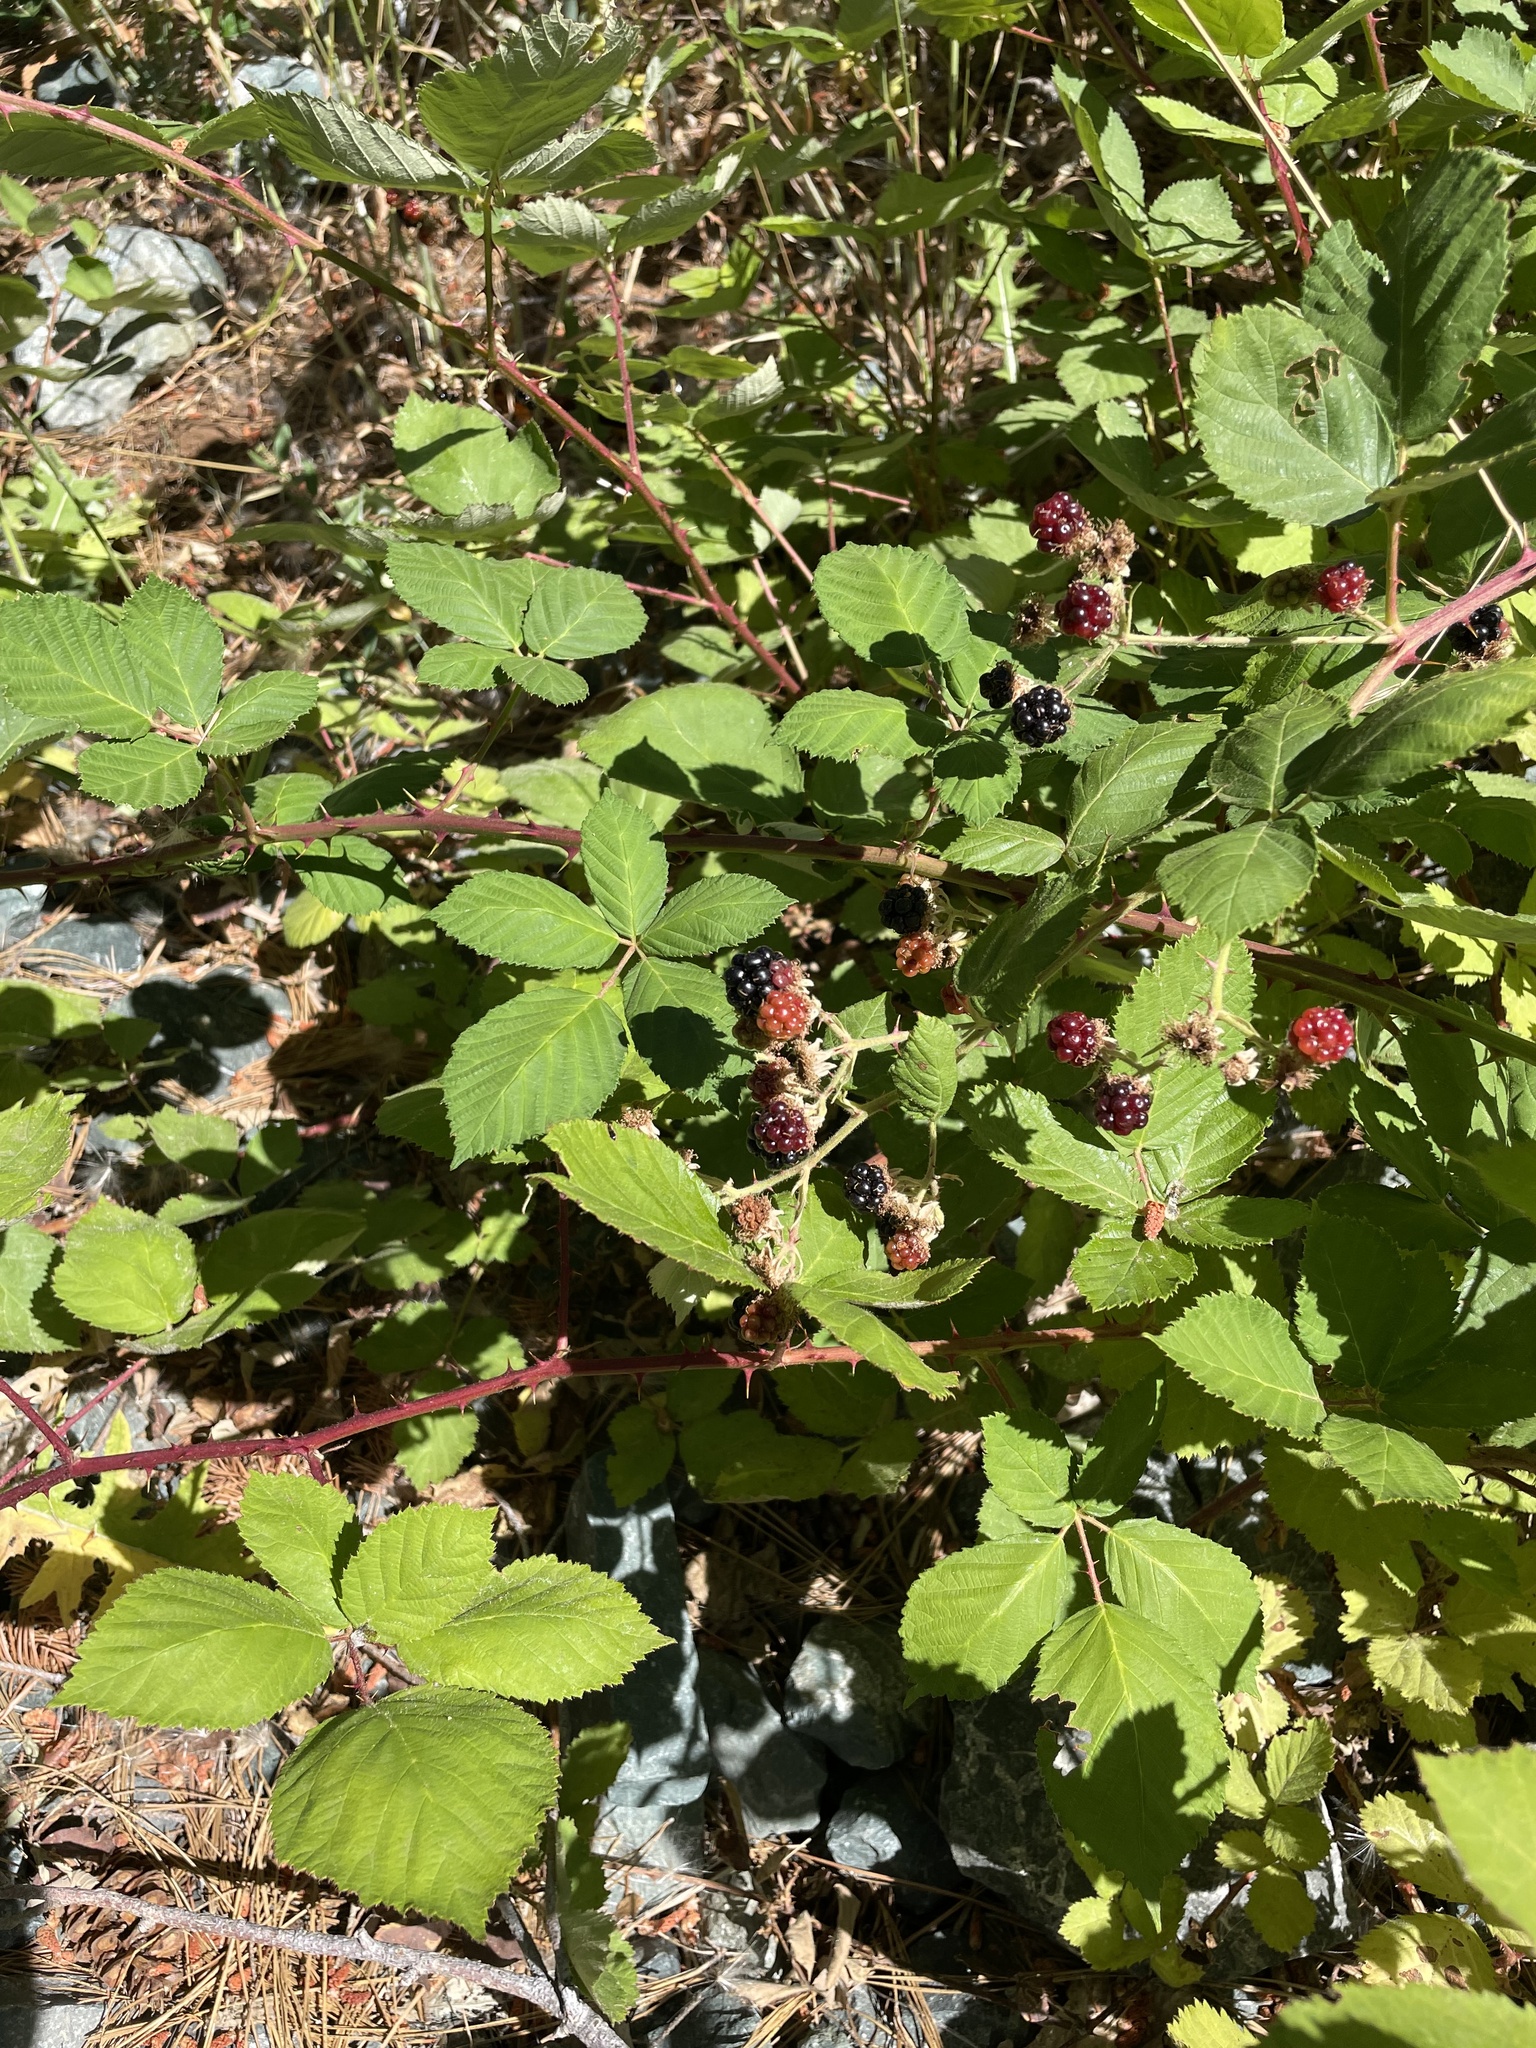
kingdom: Plantae
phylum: Tracheophyta
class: Magnoliopsida
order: Rosales
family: Rosaceae
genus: Rubus
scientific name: Rubus armeniacus
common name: Himalayan blackberry
